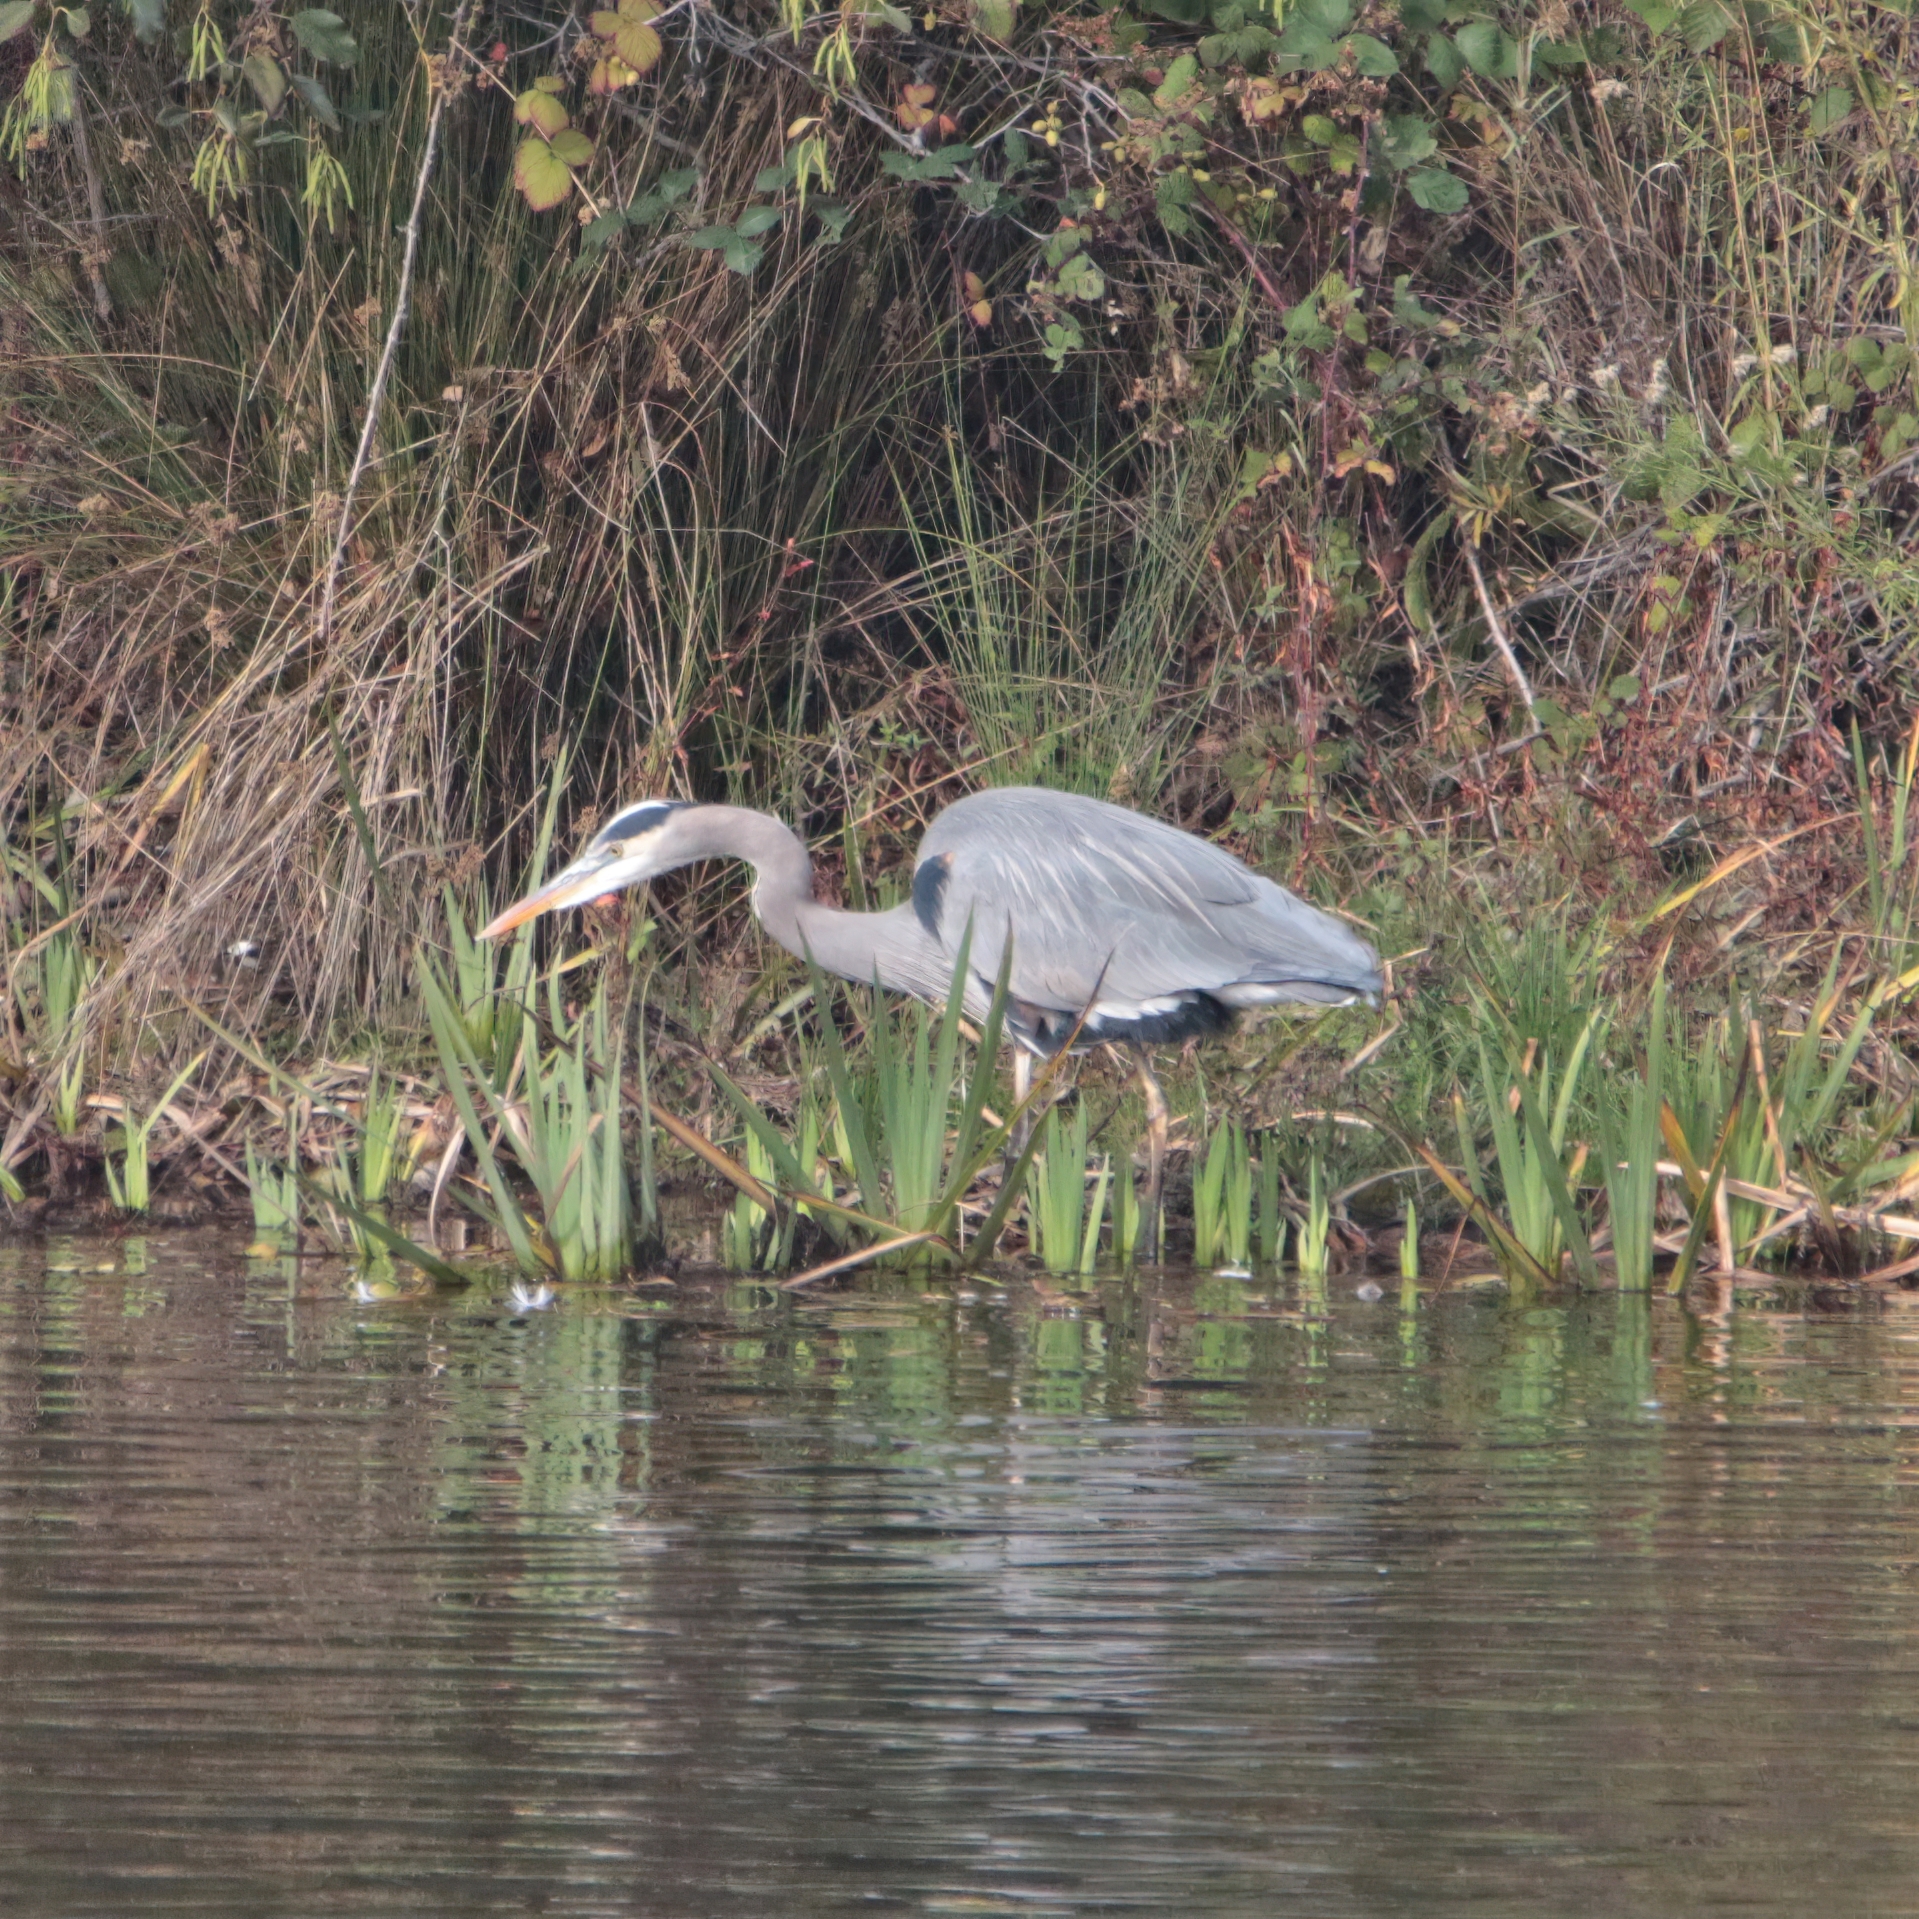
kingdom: Animalia
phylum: Chordata
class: Aves
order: Pelecaniformes
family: Ardeidae
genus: Ardea
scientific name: Ardea herodias
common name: Great blue heron
